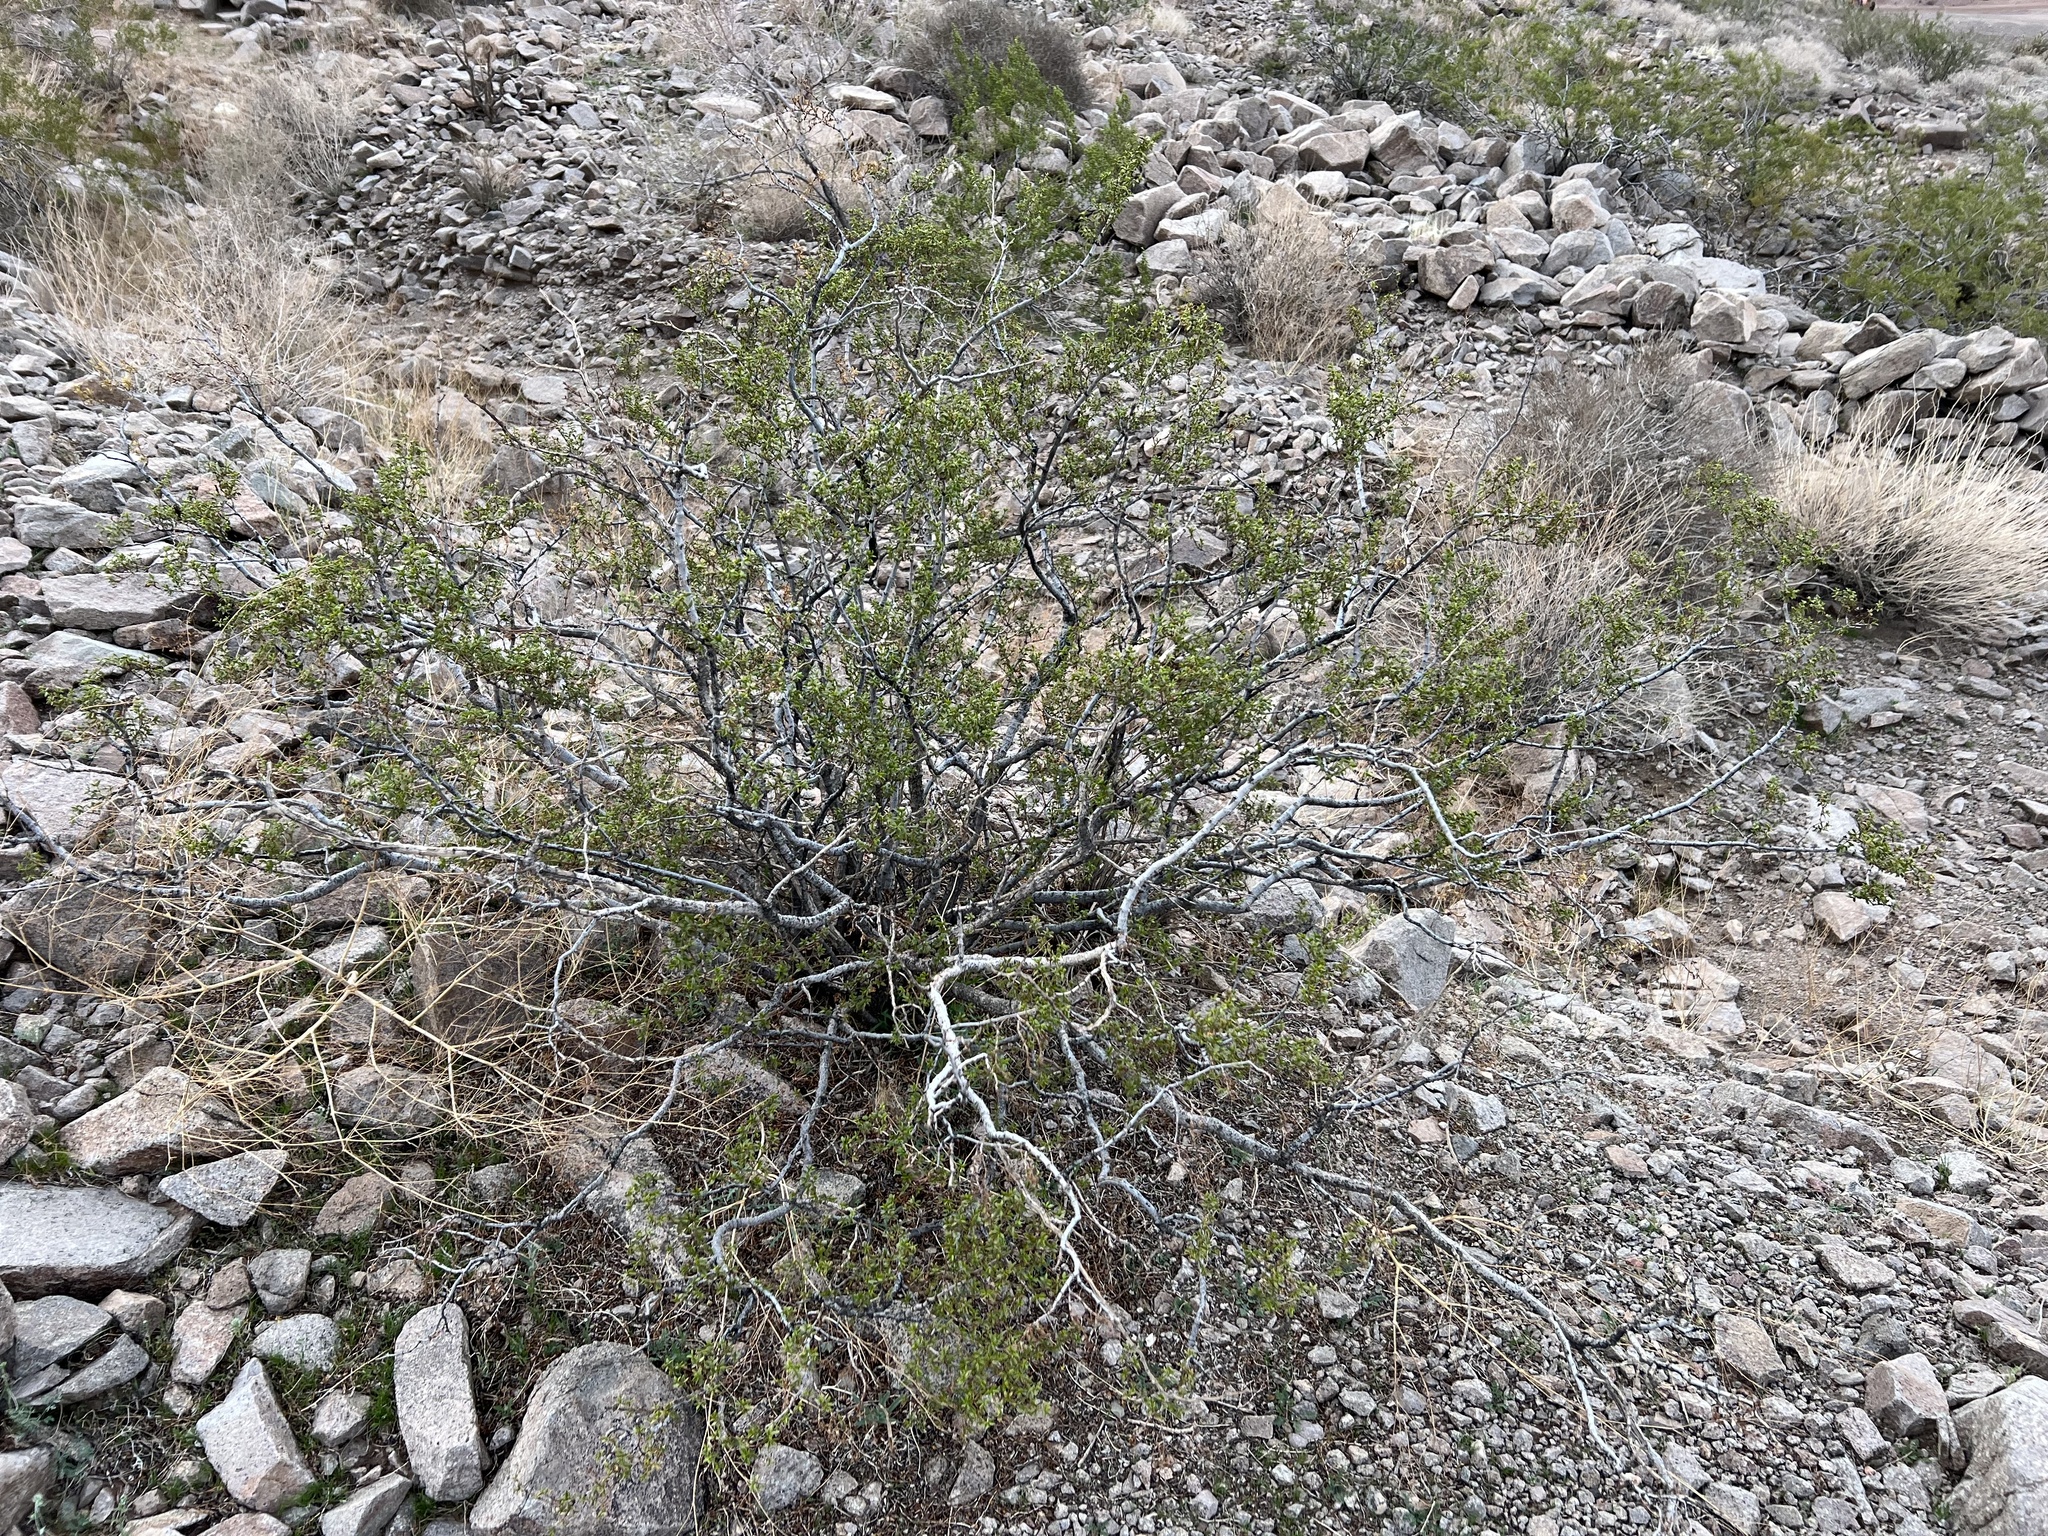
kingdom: Plantae
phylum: Tracheophyta
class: Magnoliopsida
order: Zygophyllales
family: Zygophyllaceae
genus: Larrea
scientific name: Larrea tridentata
